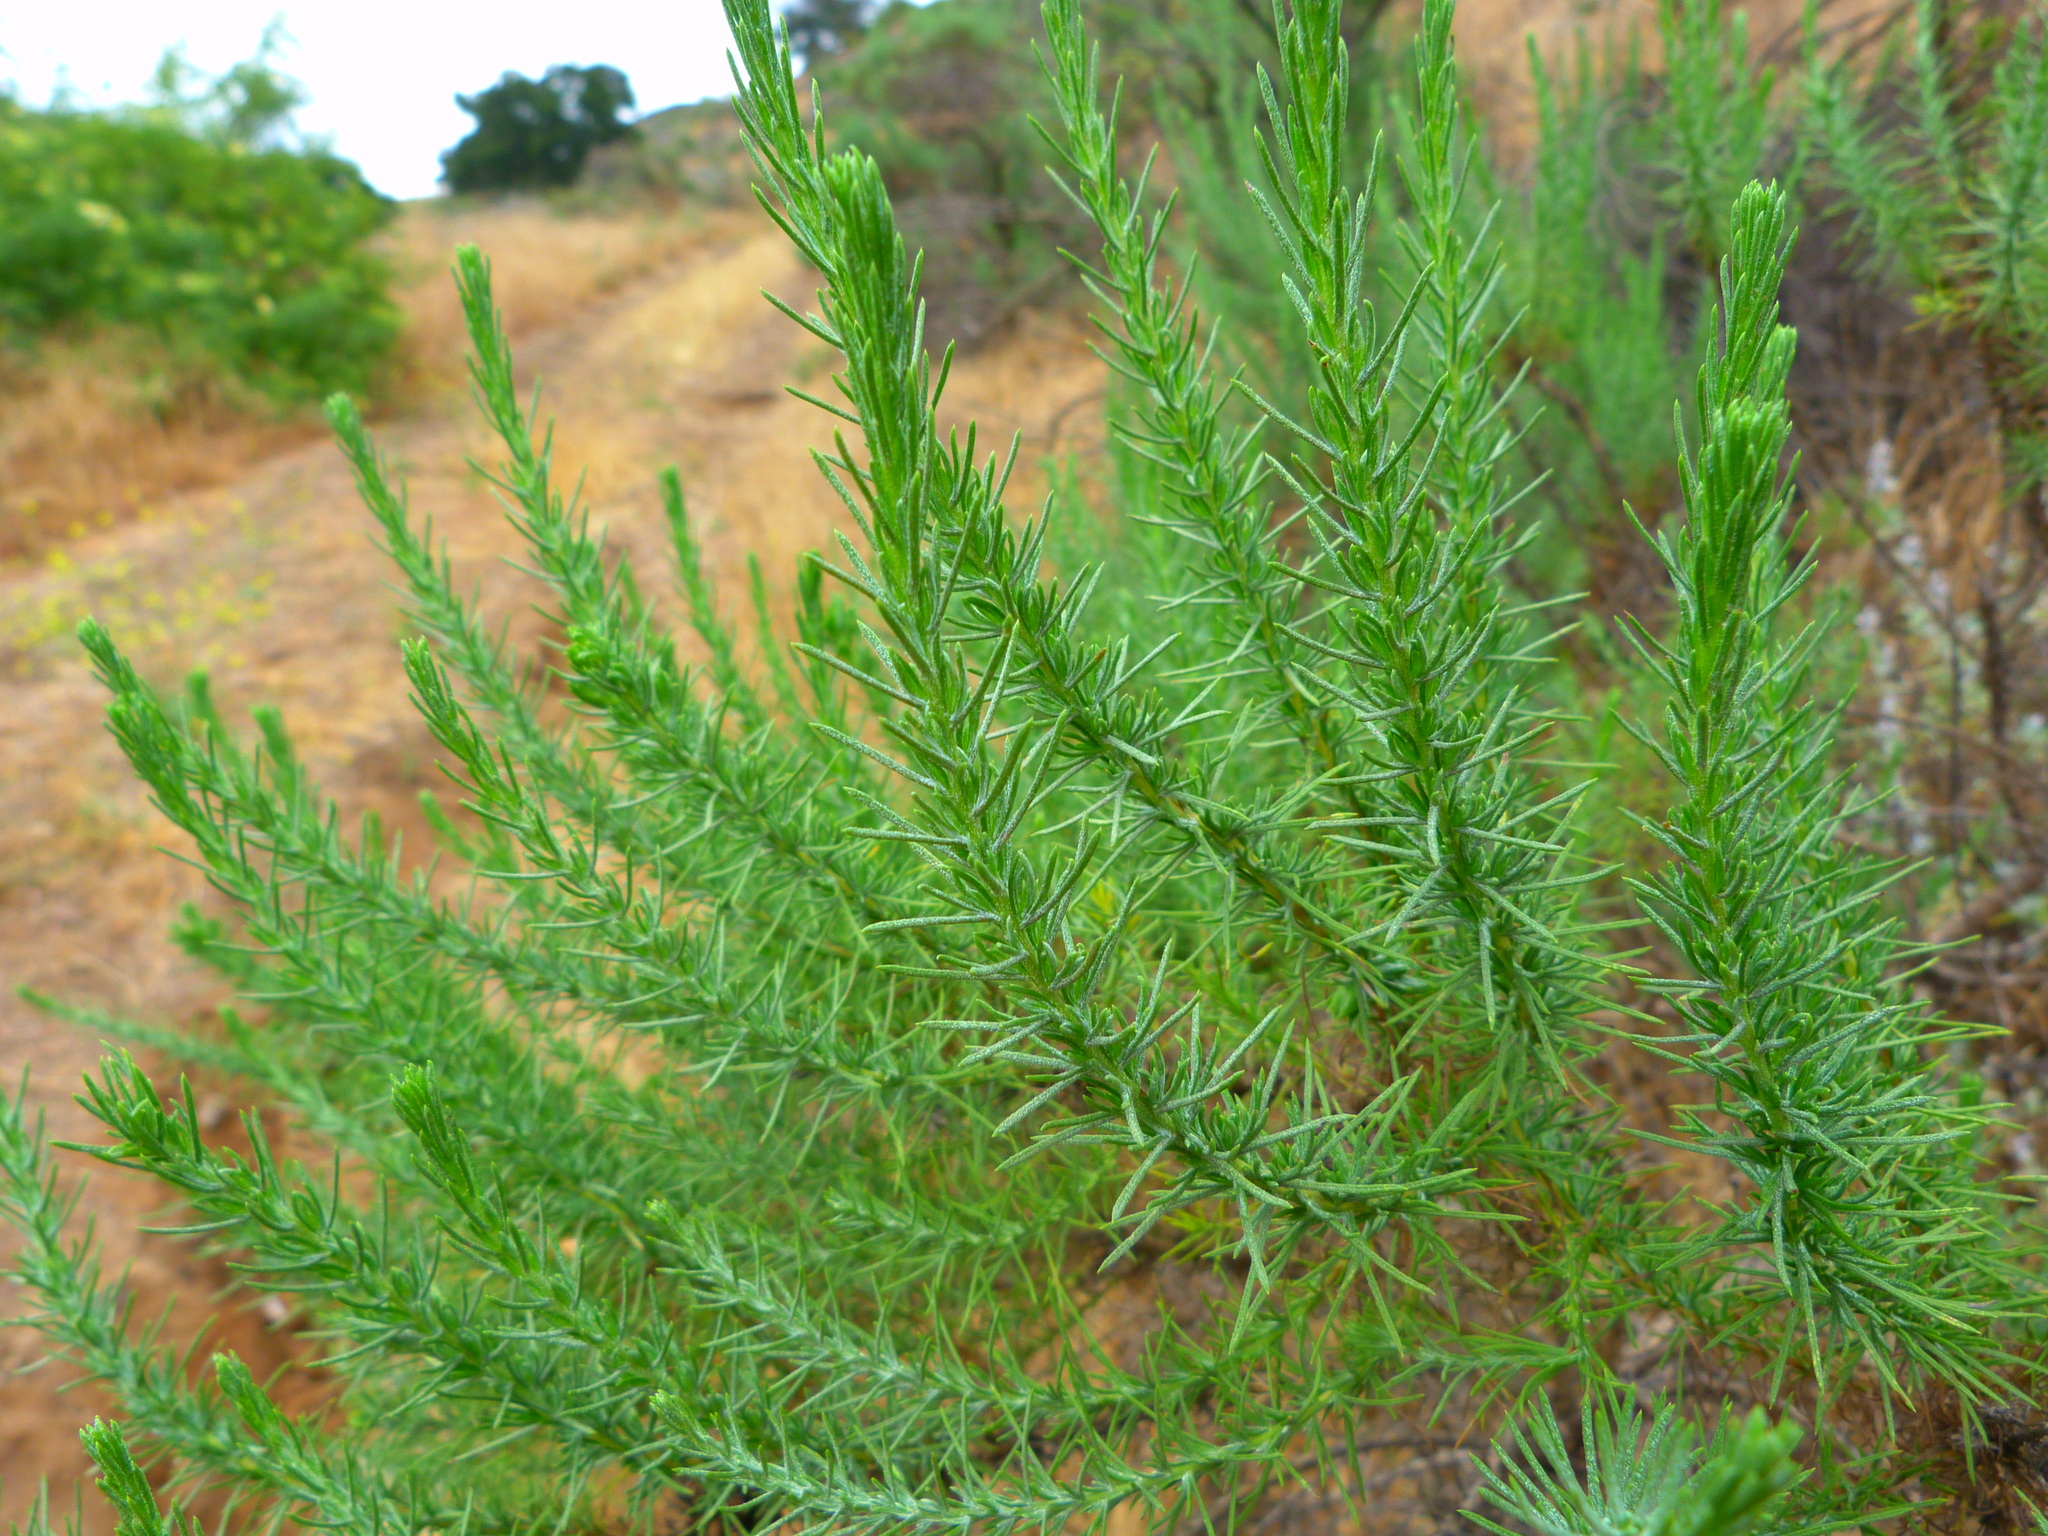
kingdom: Plantae
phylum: Tracheophyta
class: Magnoliopsida
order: Asterales
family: Asteraceae
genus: Ericameria
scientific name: Ericameria pinifolia
